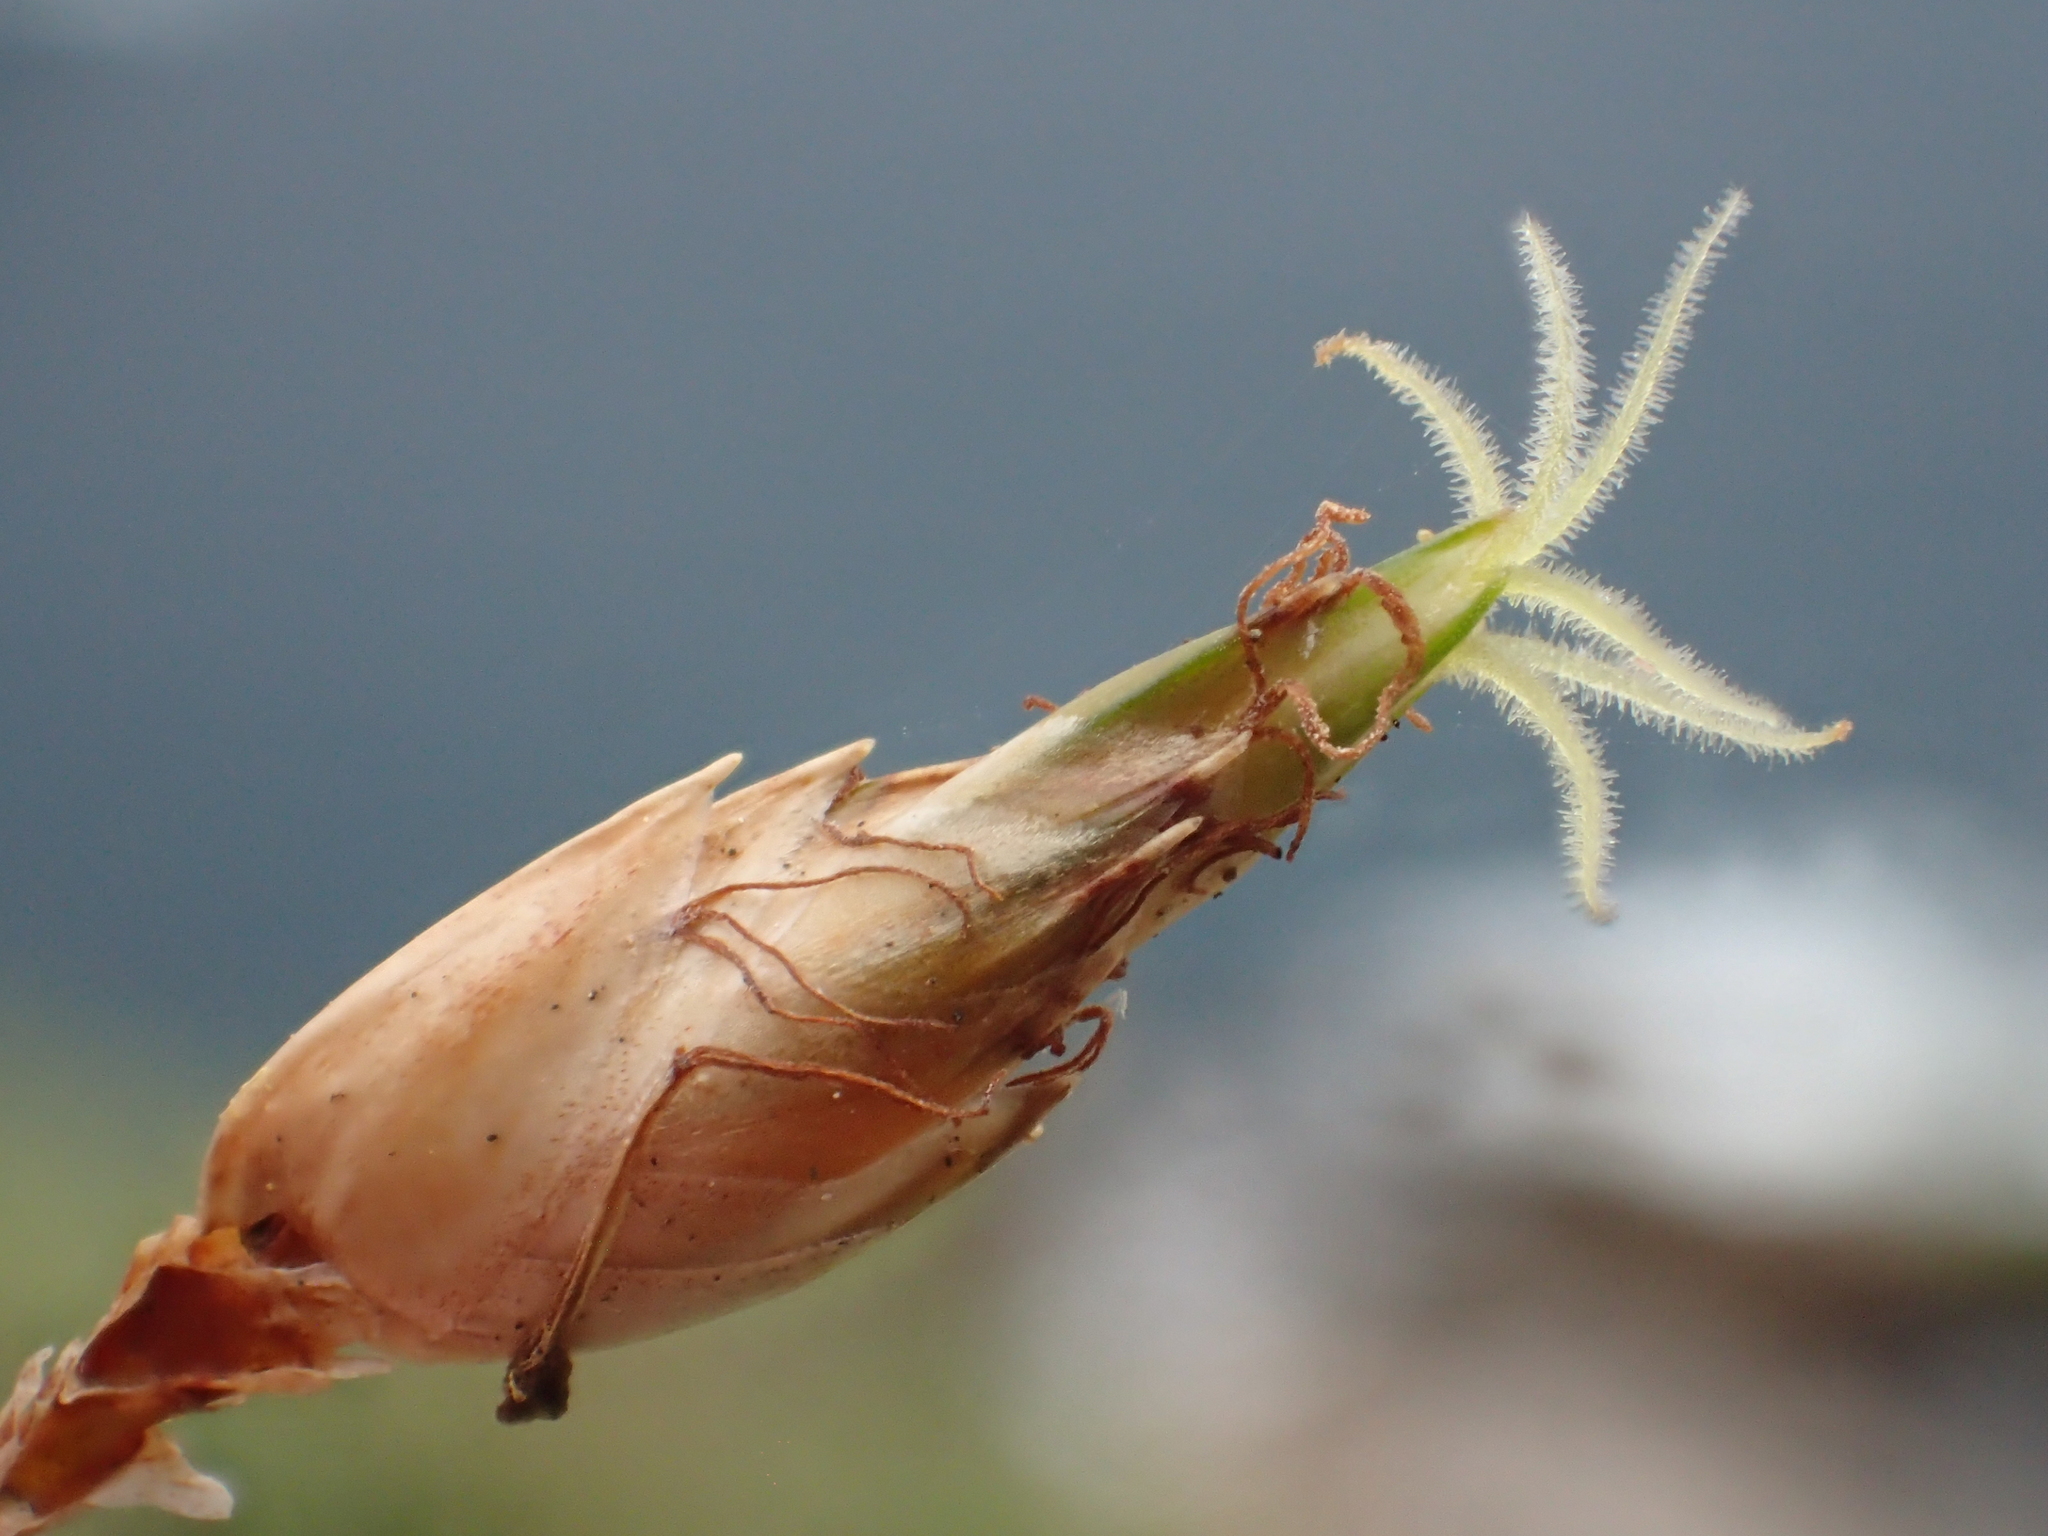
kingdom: Plantae
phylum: Tracheophyta
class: Liliopsida
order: Poales
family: Cyperaceae
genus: Abildgaardia
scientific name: Abildgaardia ovata
